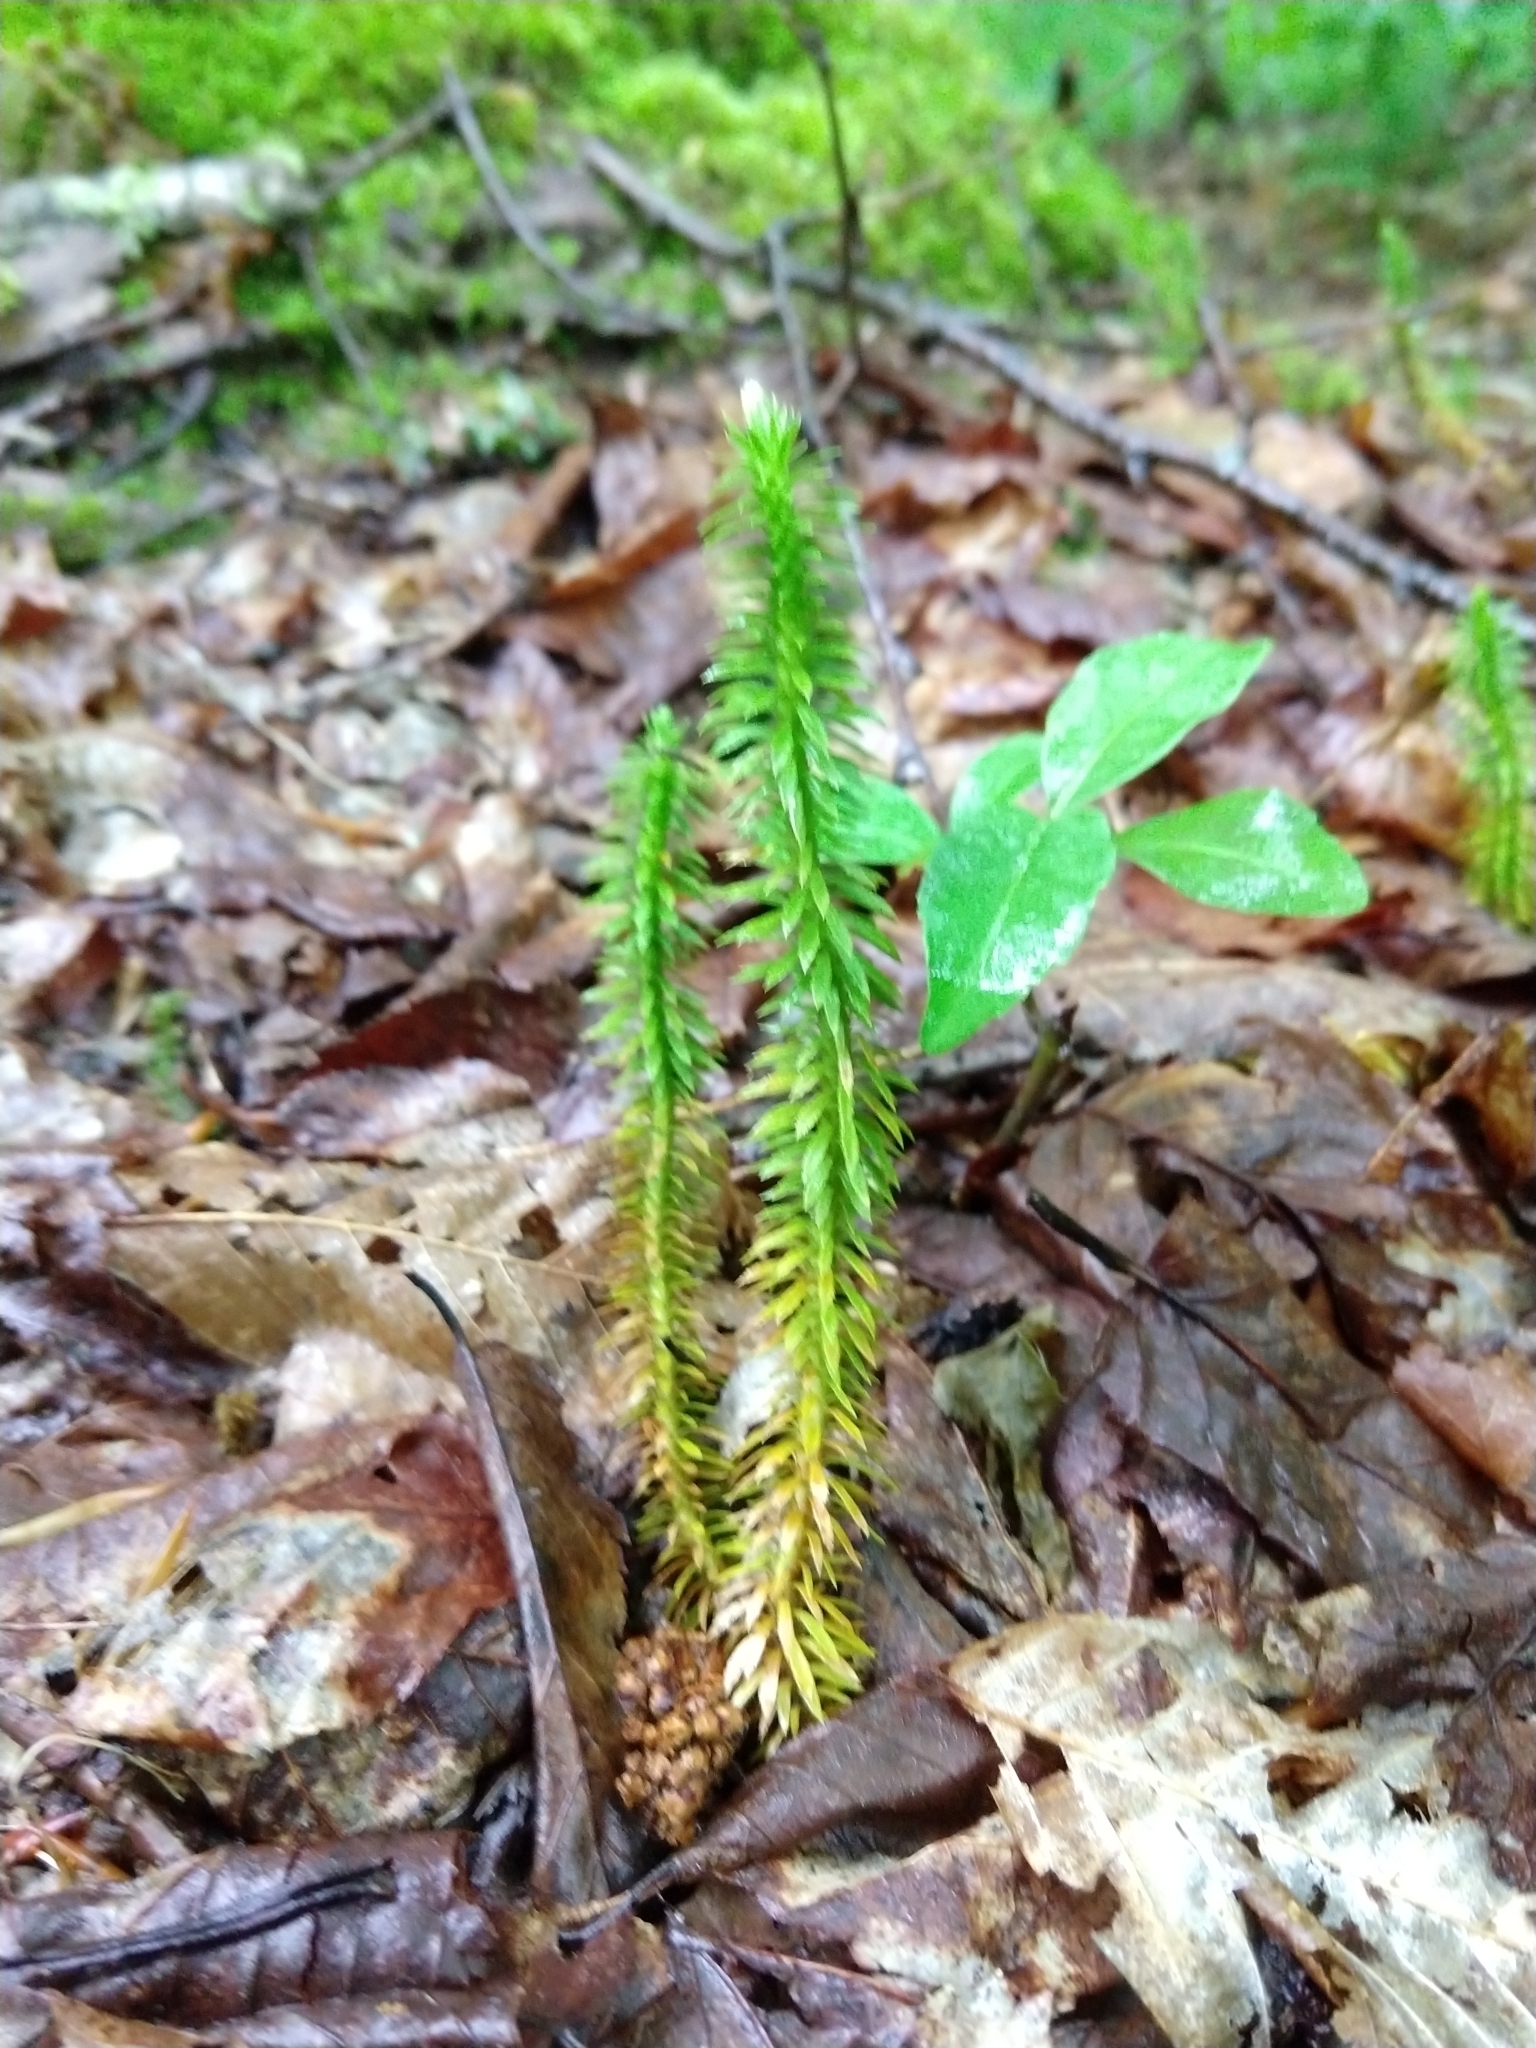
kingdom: Plantae
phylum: Tracheophyta
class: Lycopodiopsida
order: Lycopodiales
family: Lycopodiaceae
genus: Huperzia
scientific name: Huperzia lucidula
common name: Shining clubmoss
